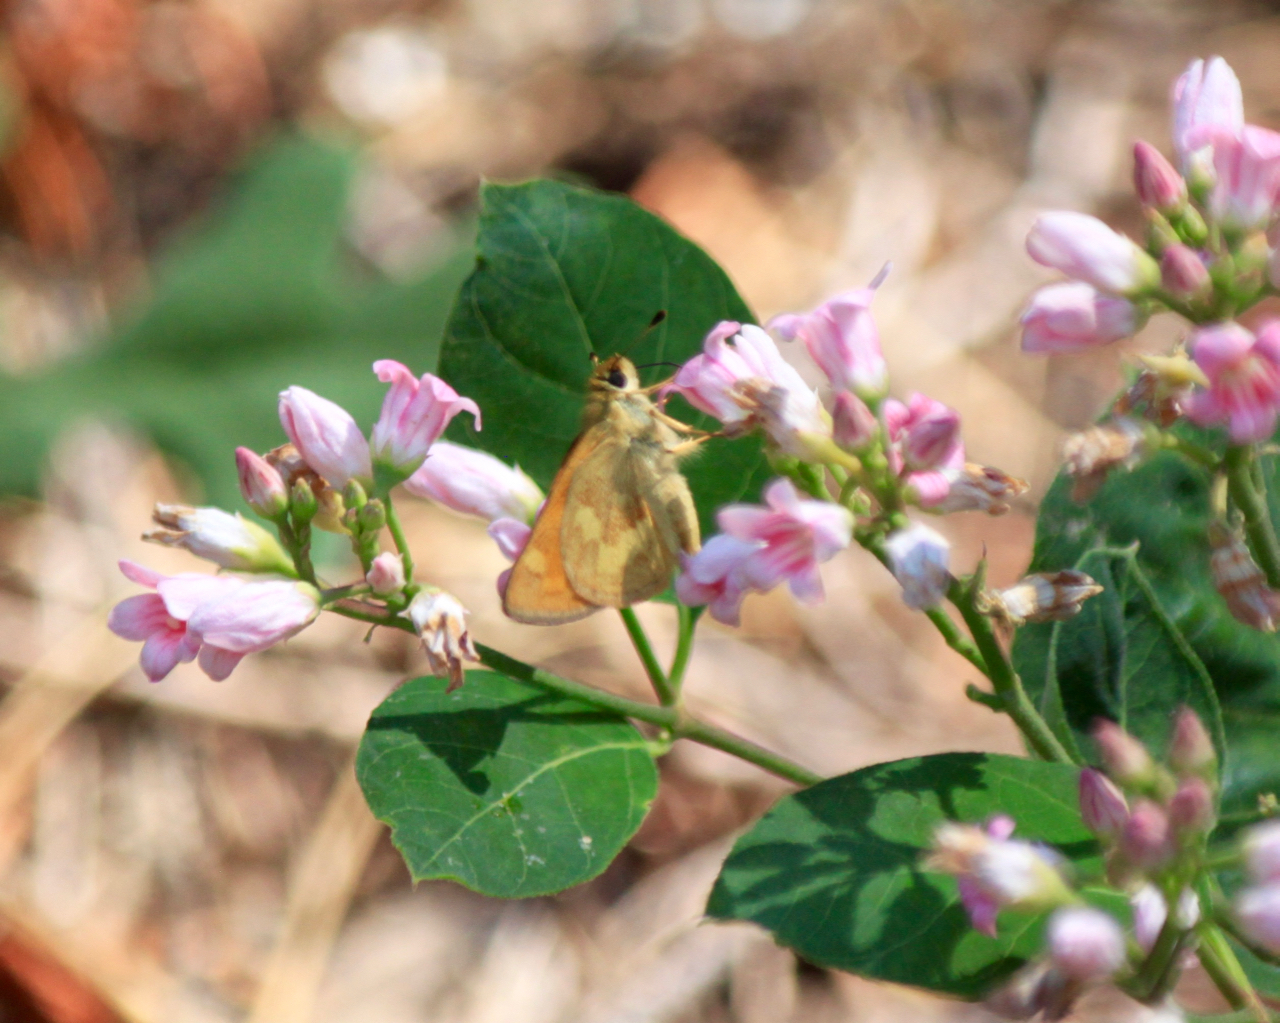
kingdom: Animalia
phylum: Arthropoda
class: Insecta
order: Lepidoptera
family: Hesperiidae
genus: Ochlodes
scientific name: Ochlodes sylvanoides
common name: Woodland skipper
